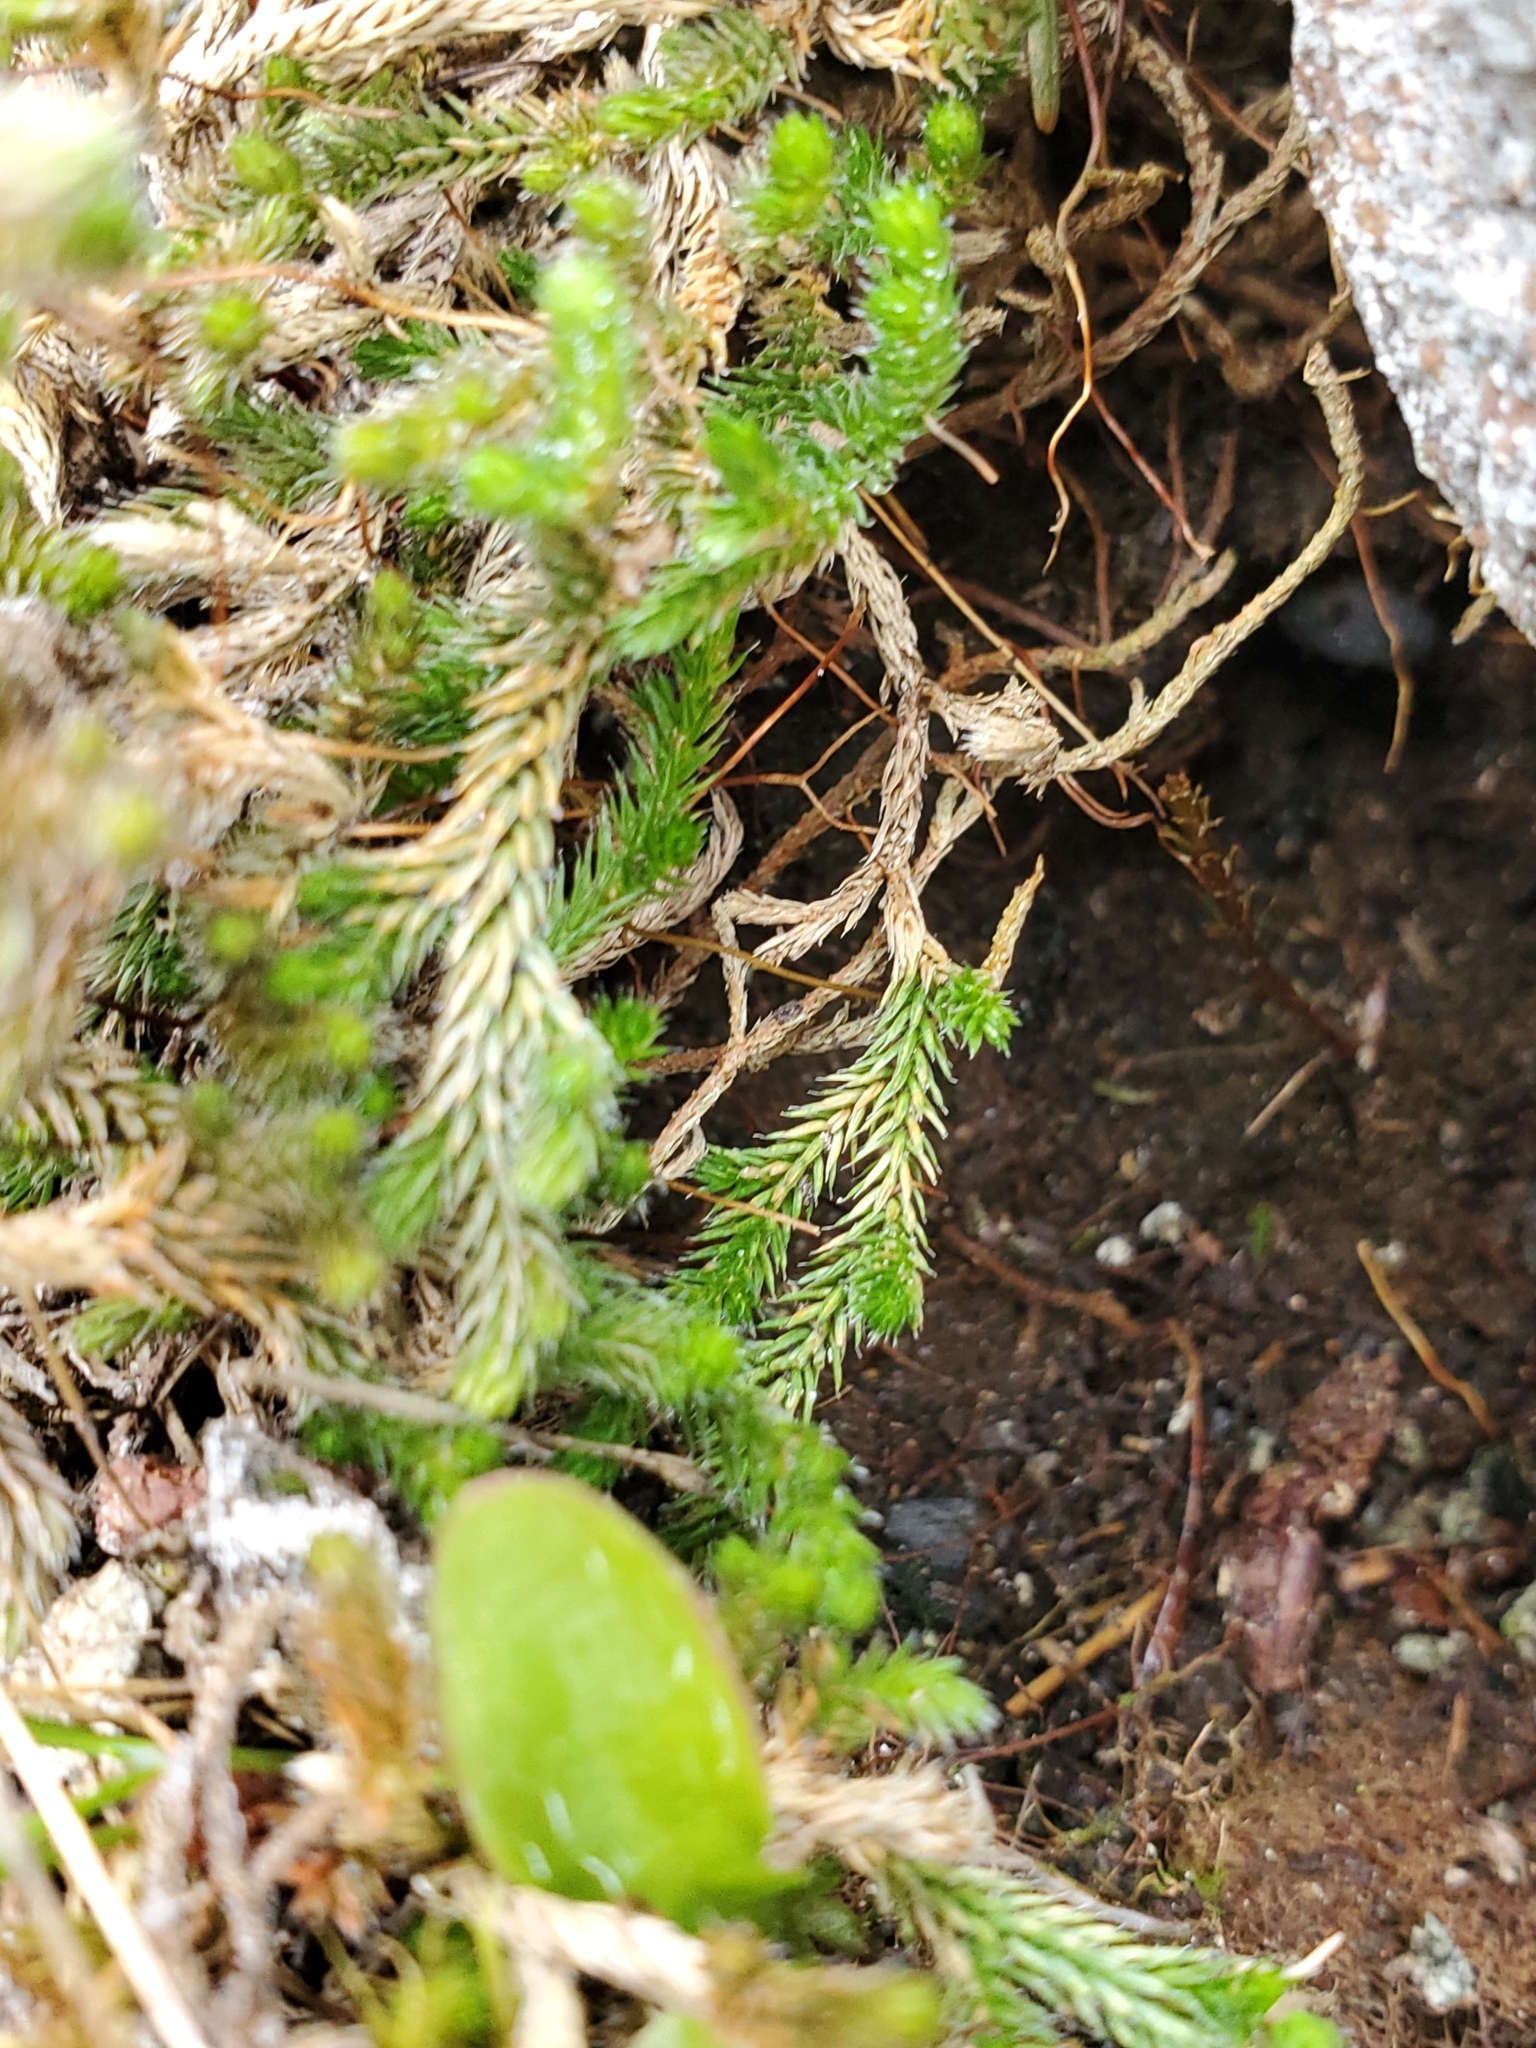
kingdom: Plantae
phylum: Tracheophyta
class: Lycopodiopsida
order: Selaginellales
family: Selaginellaceae
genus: Selaginella
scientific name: Selaginella wallacei
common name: Wallace's selaginella
